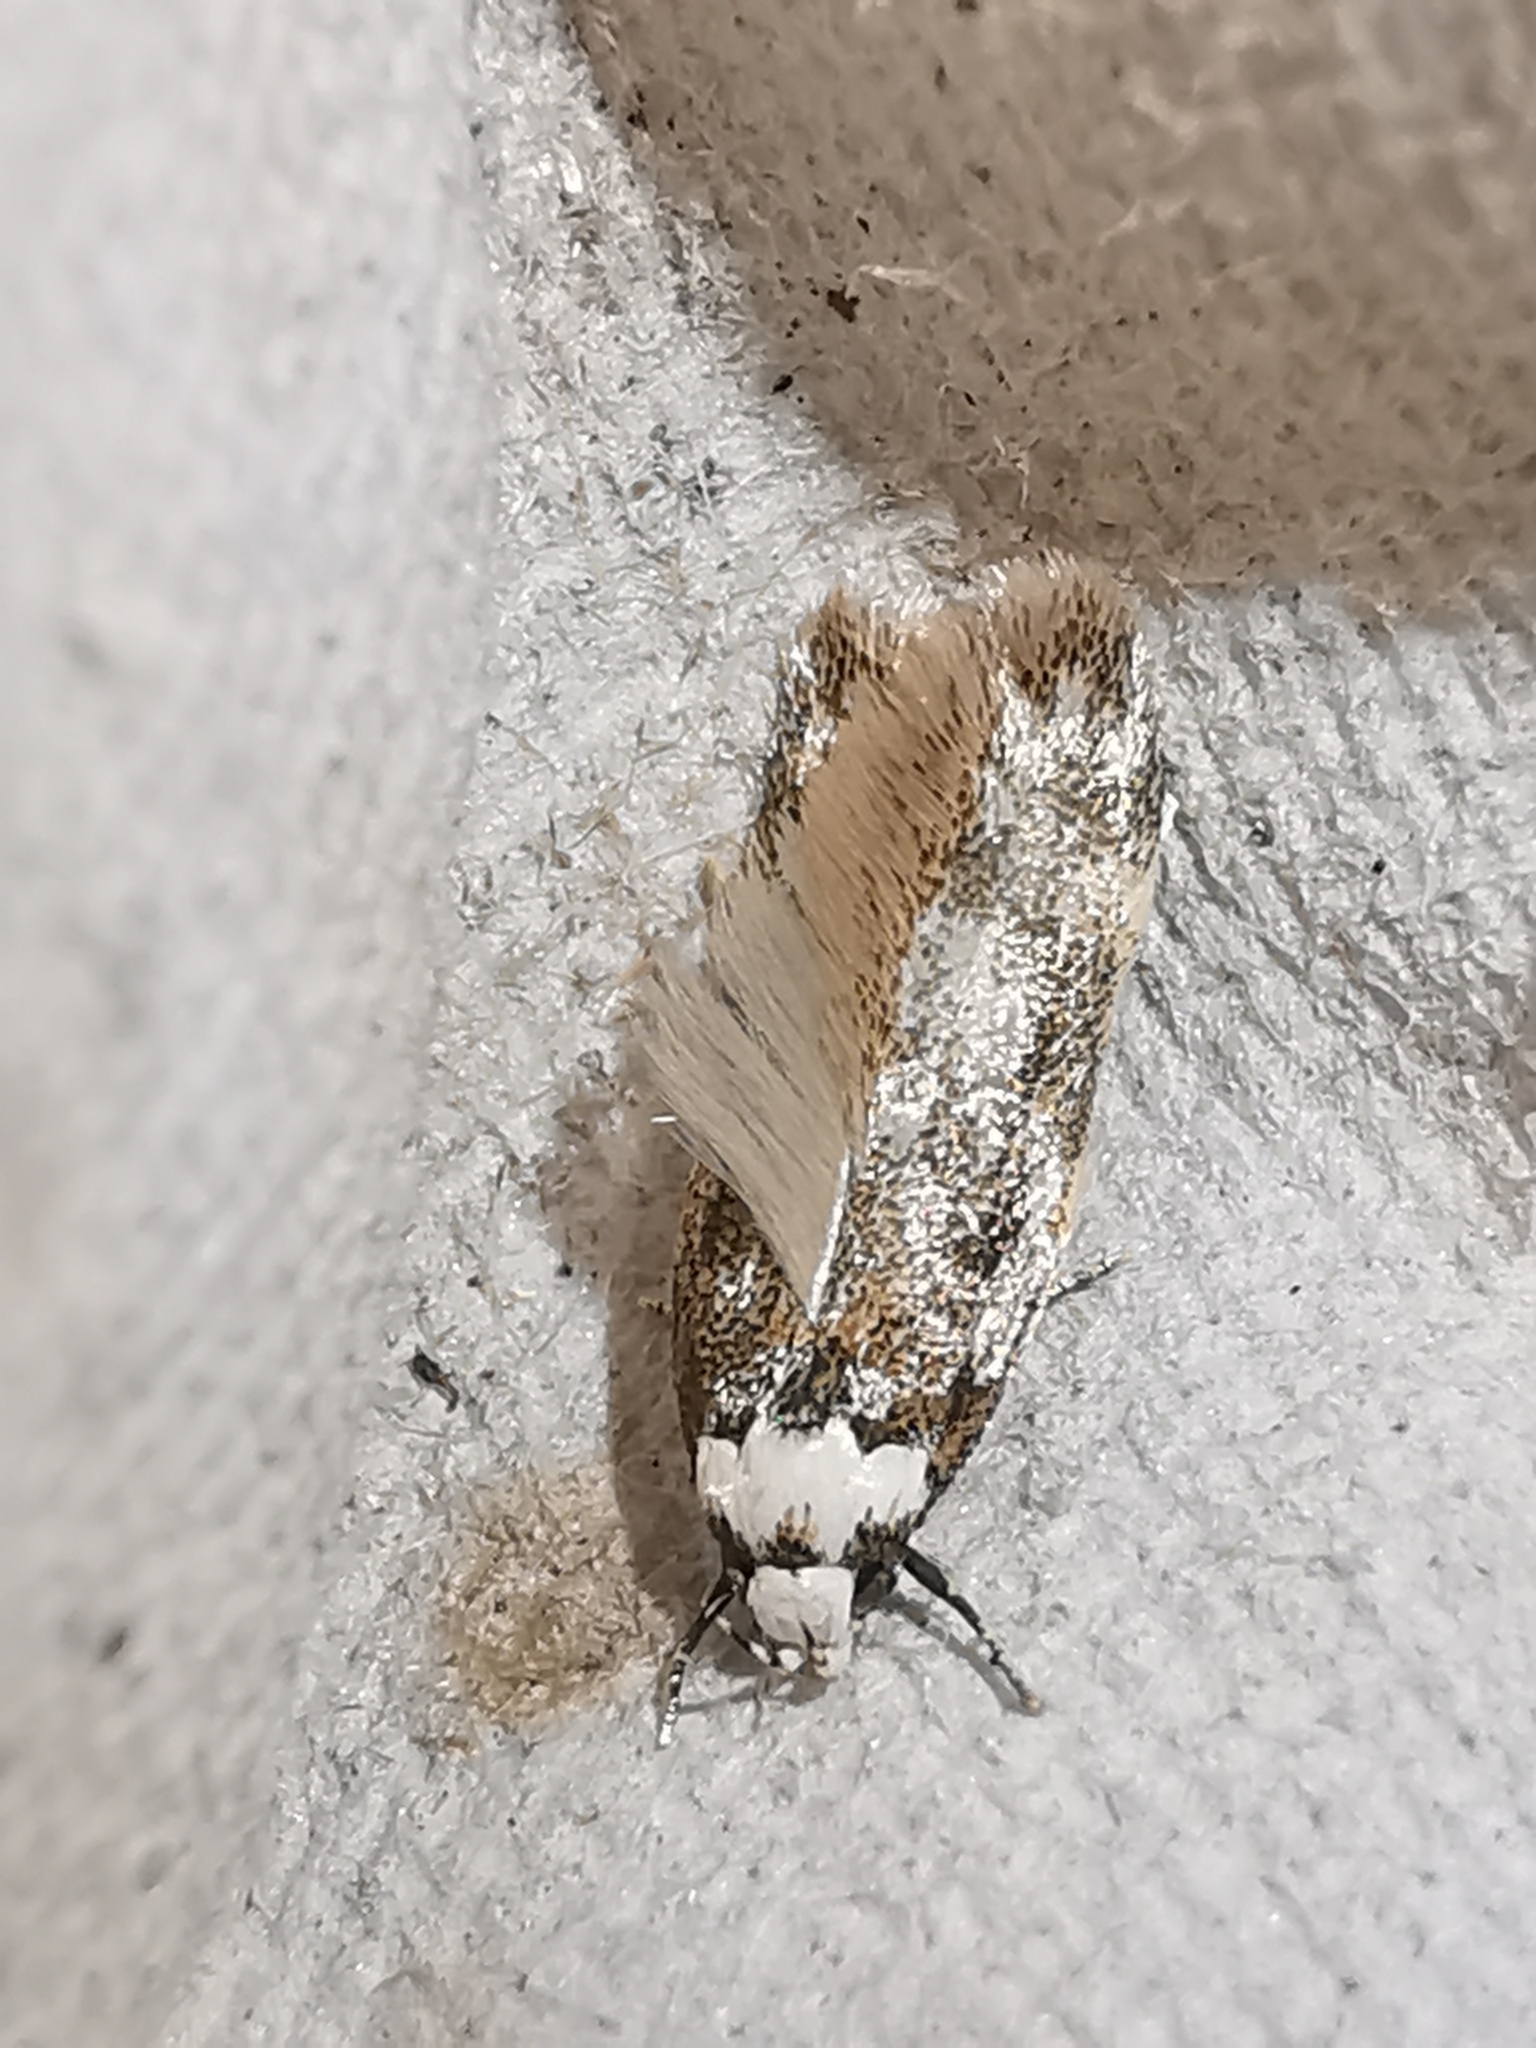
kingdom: Animalia
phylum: Arthropoda
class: Insecta
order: Lepidoptera
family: Oecophoridae
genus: Endrosis
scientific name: Endrosis sarcitrella
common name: White-shouldered house moth
